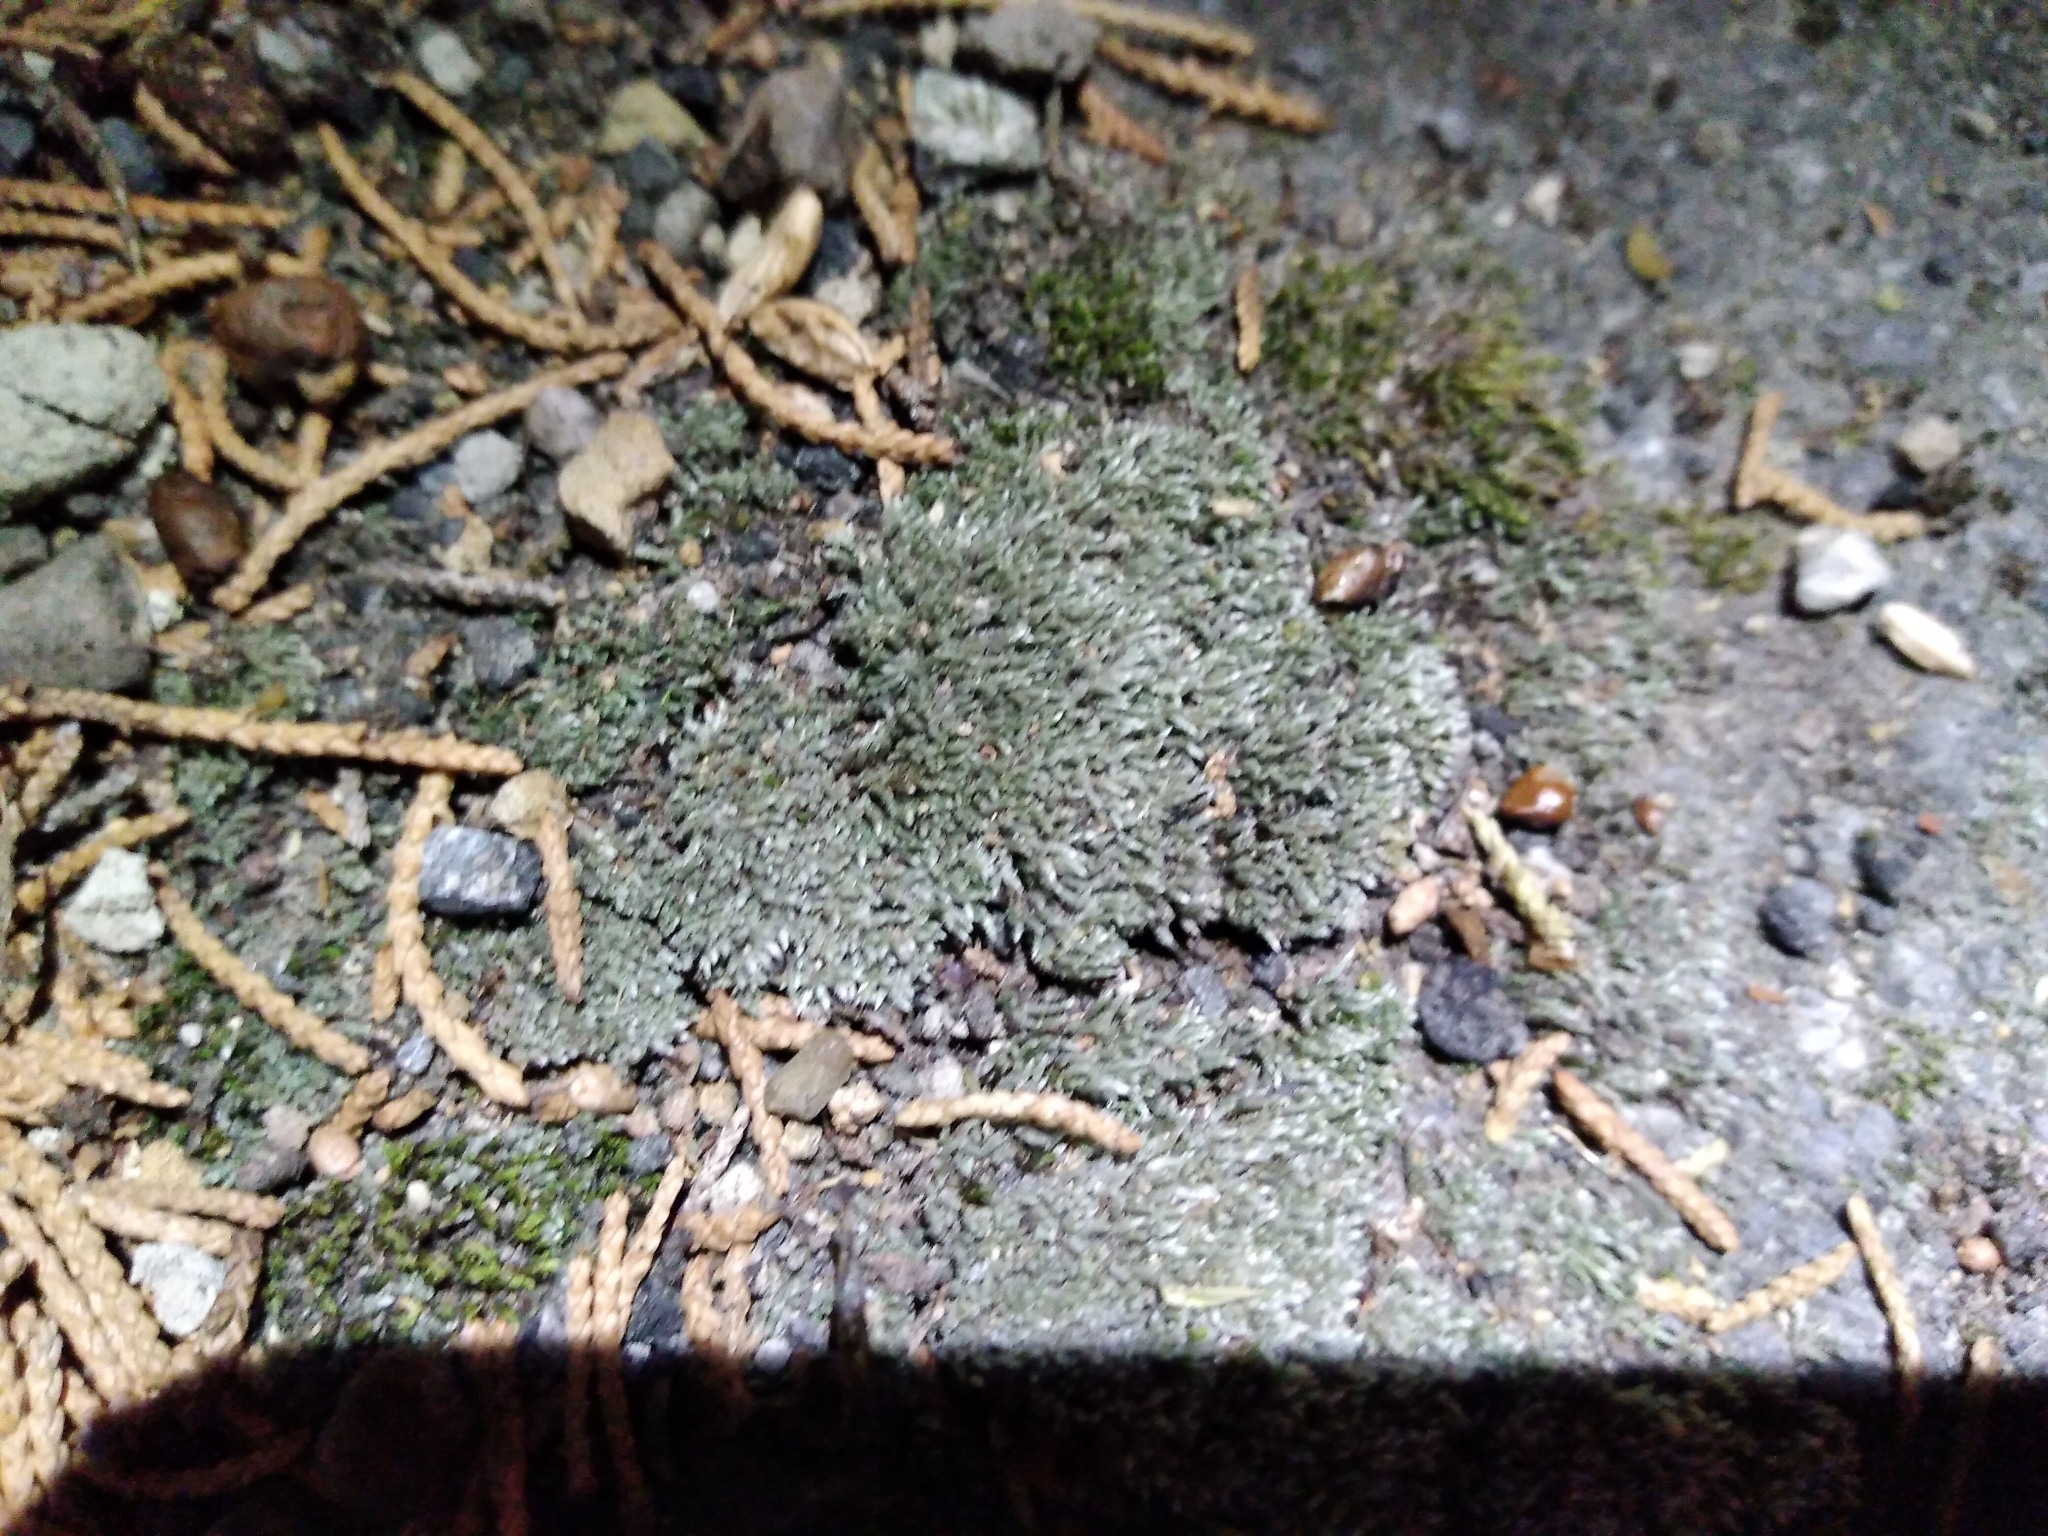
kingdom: Plantae
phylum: Bryophyta
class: Bryopsida
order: Bryales
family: Bryaceae
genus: Bryum
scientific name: Bryum argenteum
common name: Silver-moss
